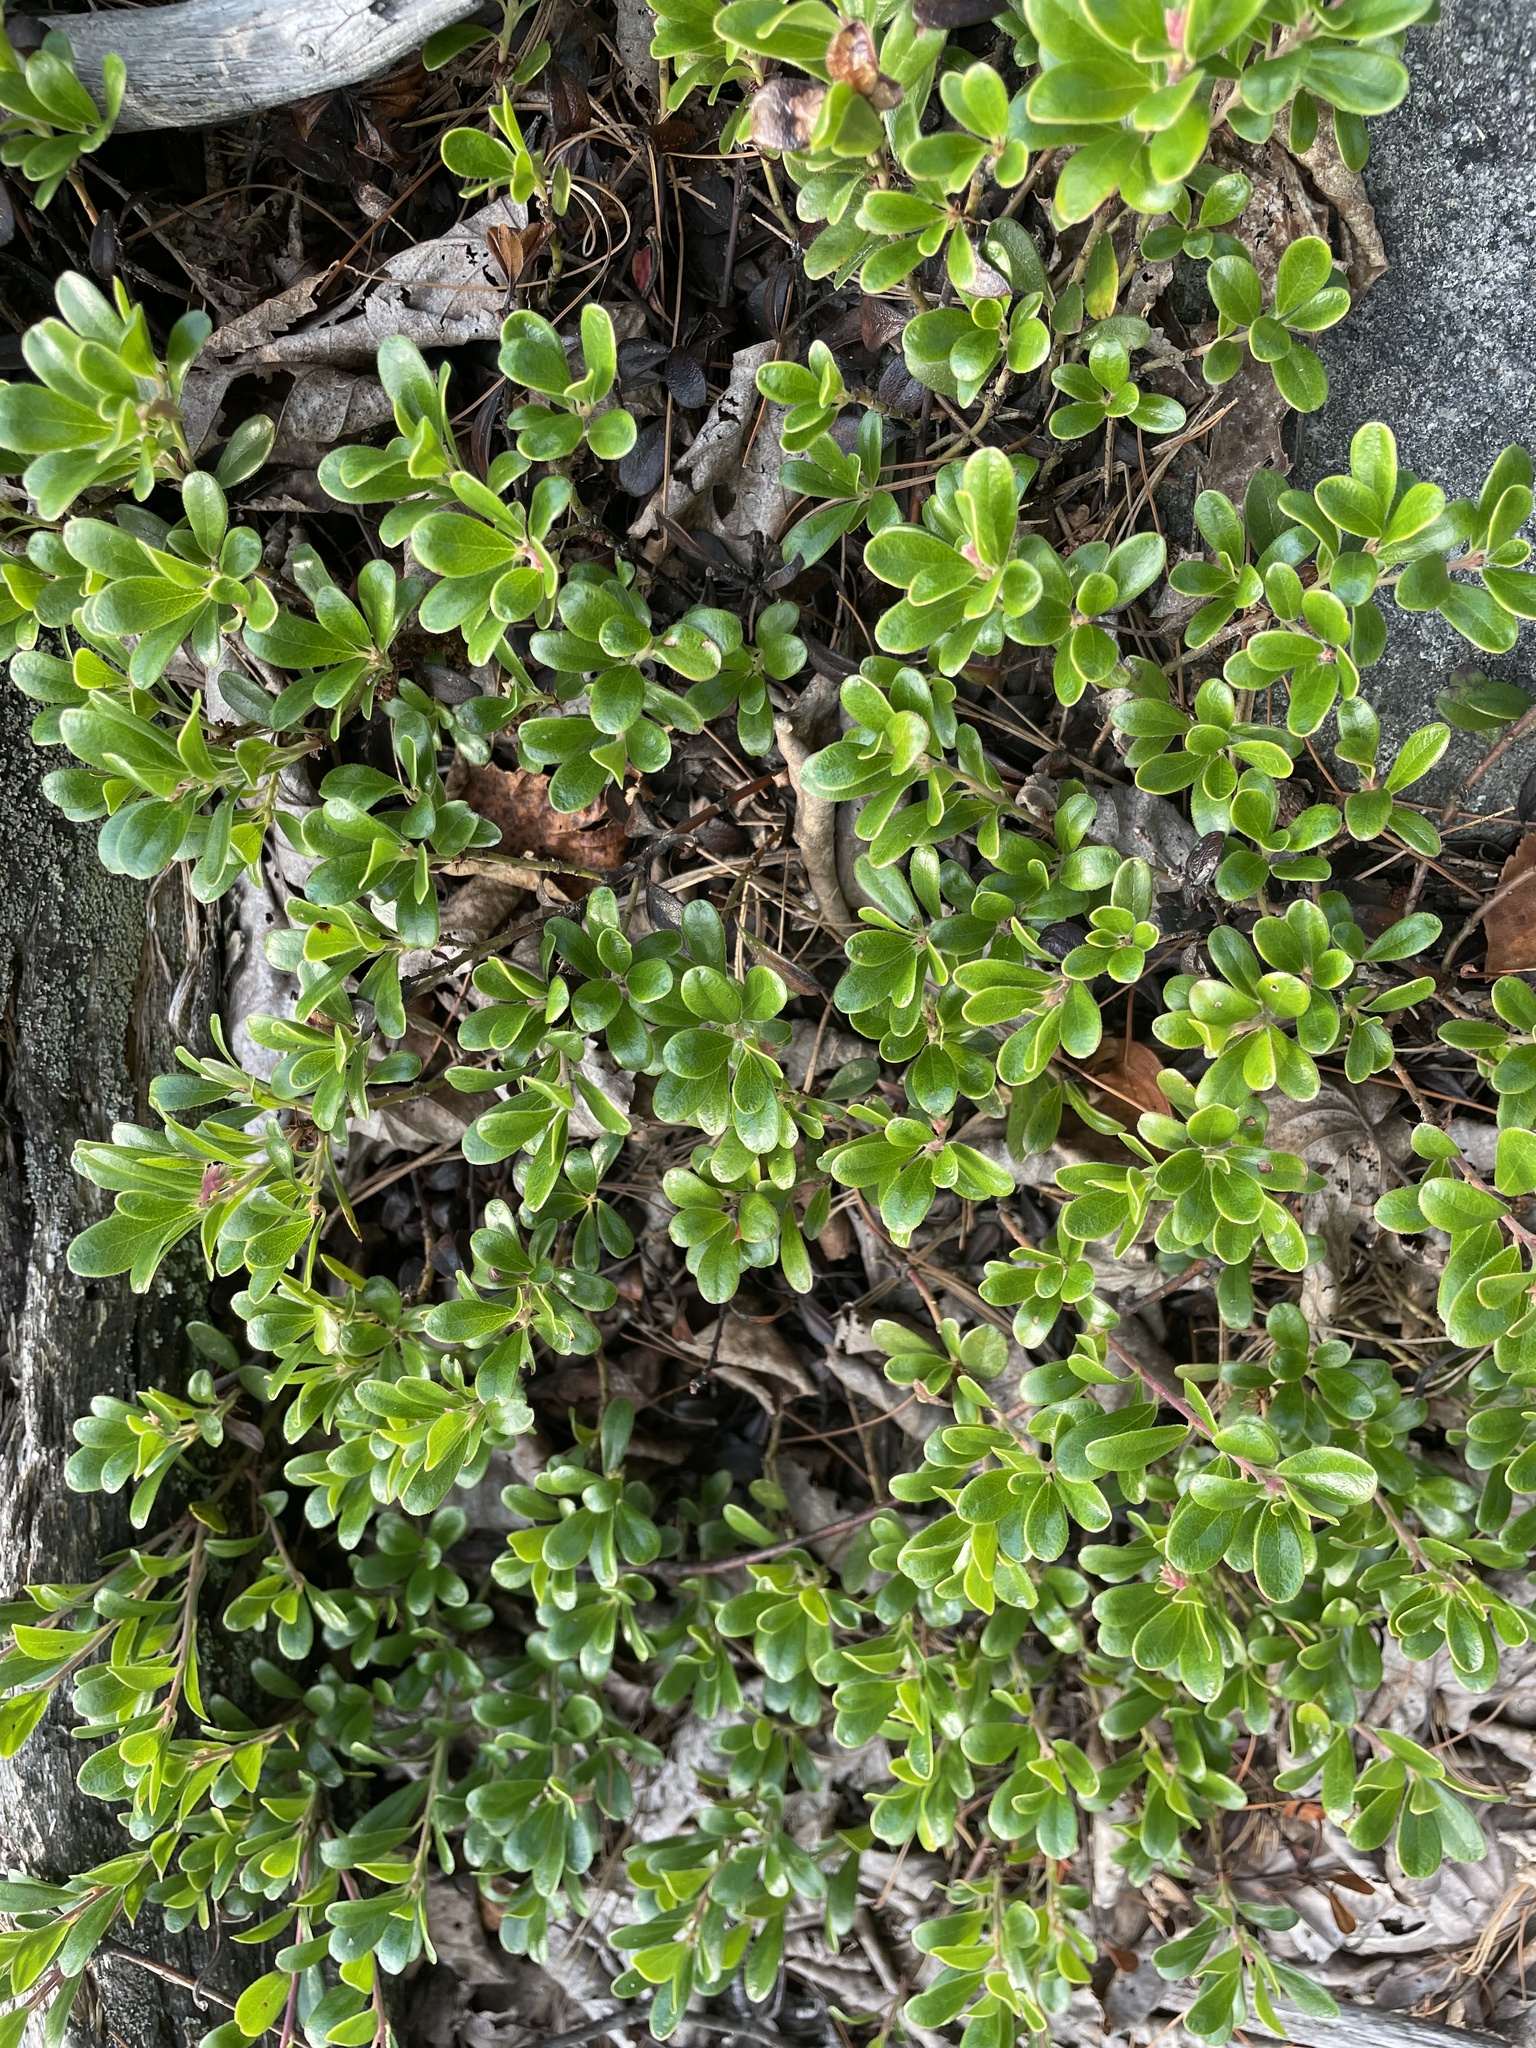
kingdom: Plantae
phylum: Tracheophyta
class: Magnoliopsida
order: Ericales
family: Ericaceae
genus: Arctostaphylos
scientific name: Arctostaphylos uva-ursi
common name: Bearberry
